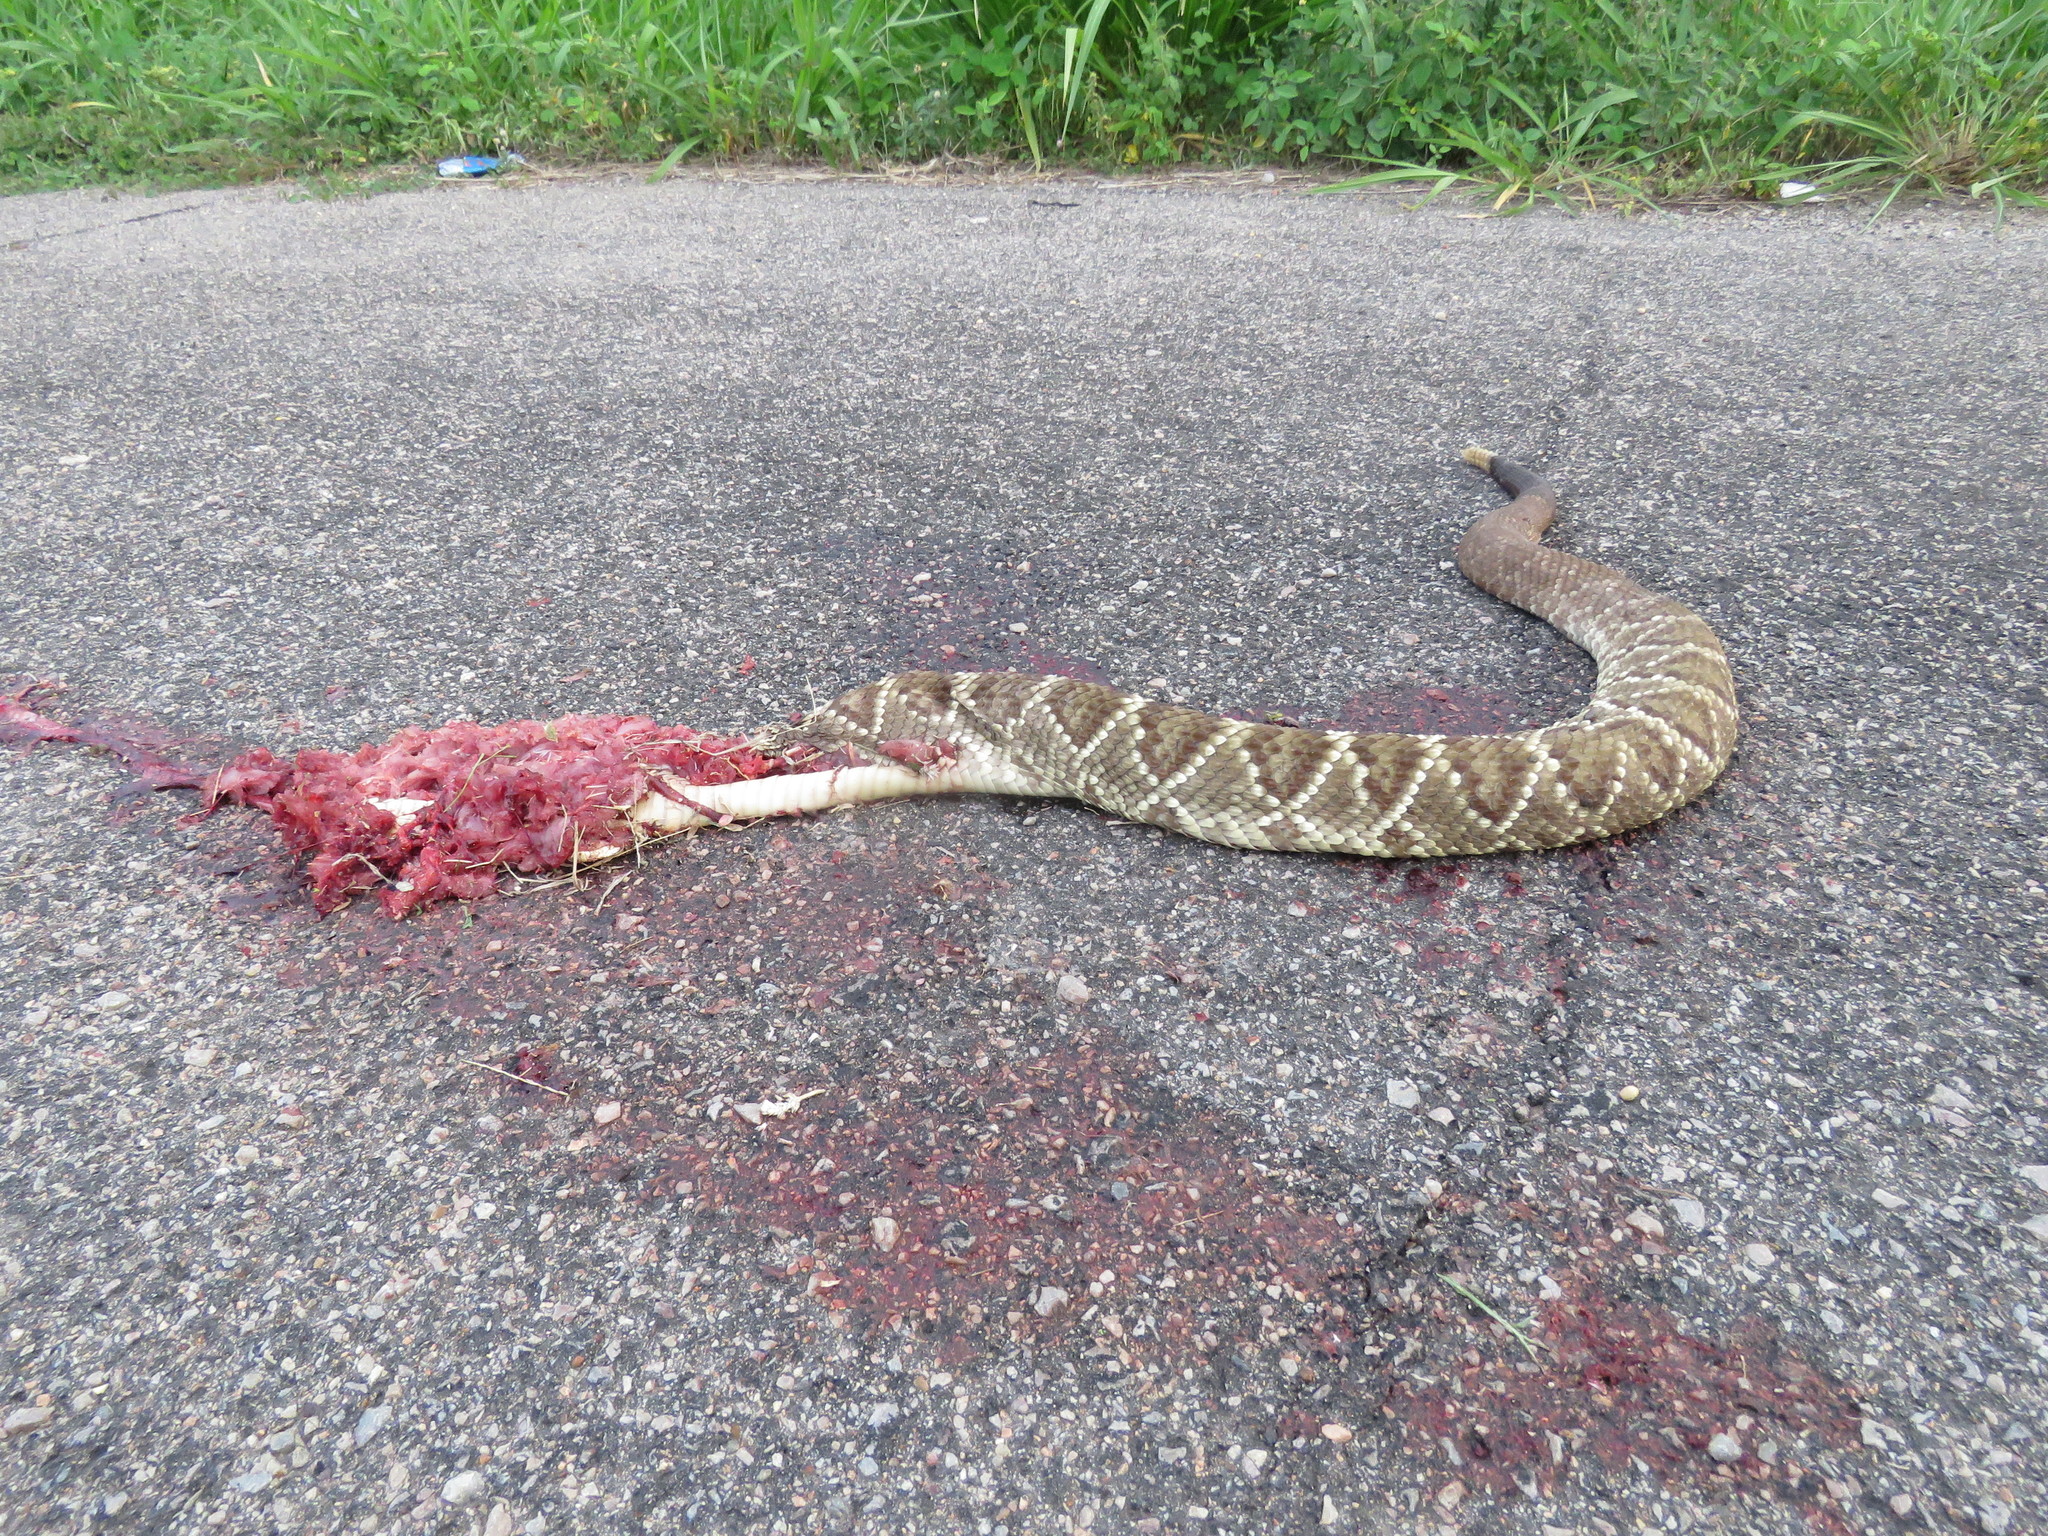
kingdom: Animalia
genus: Crotalus
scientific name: Crotalus durissus
